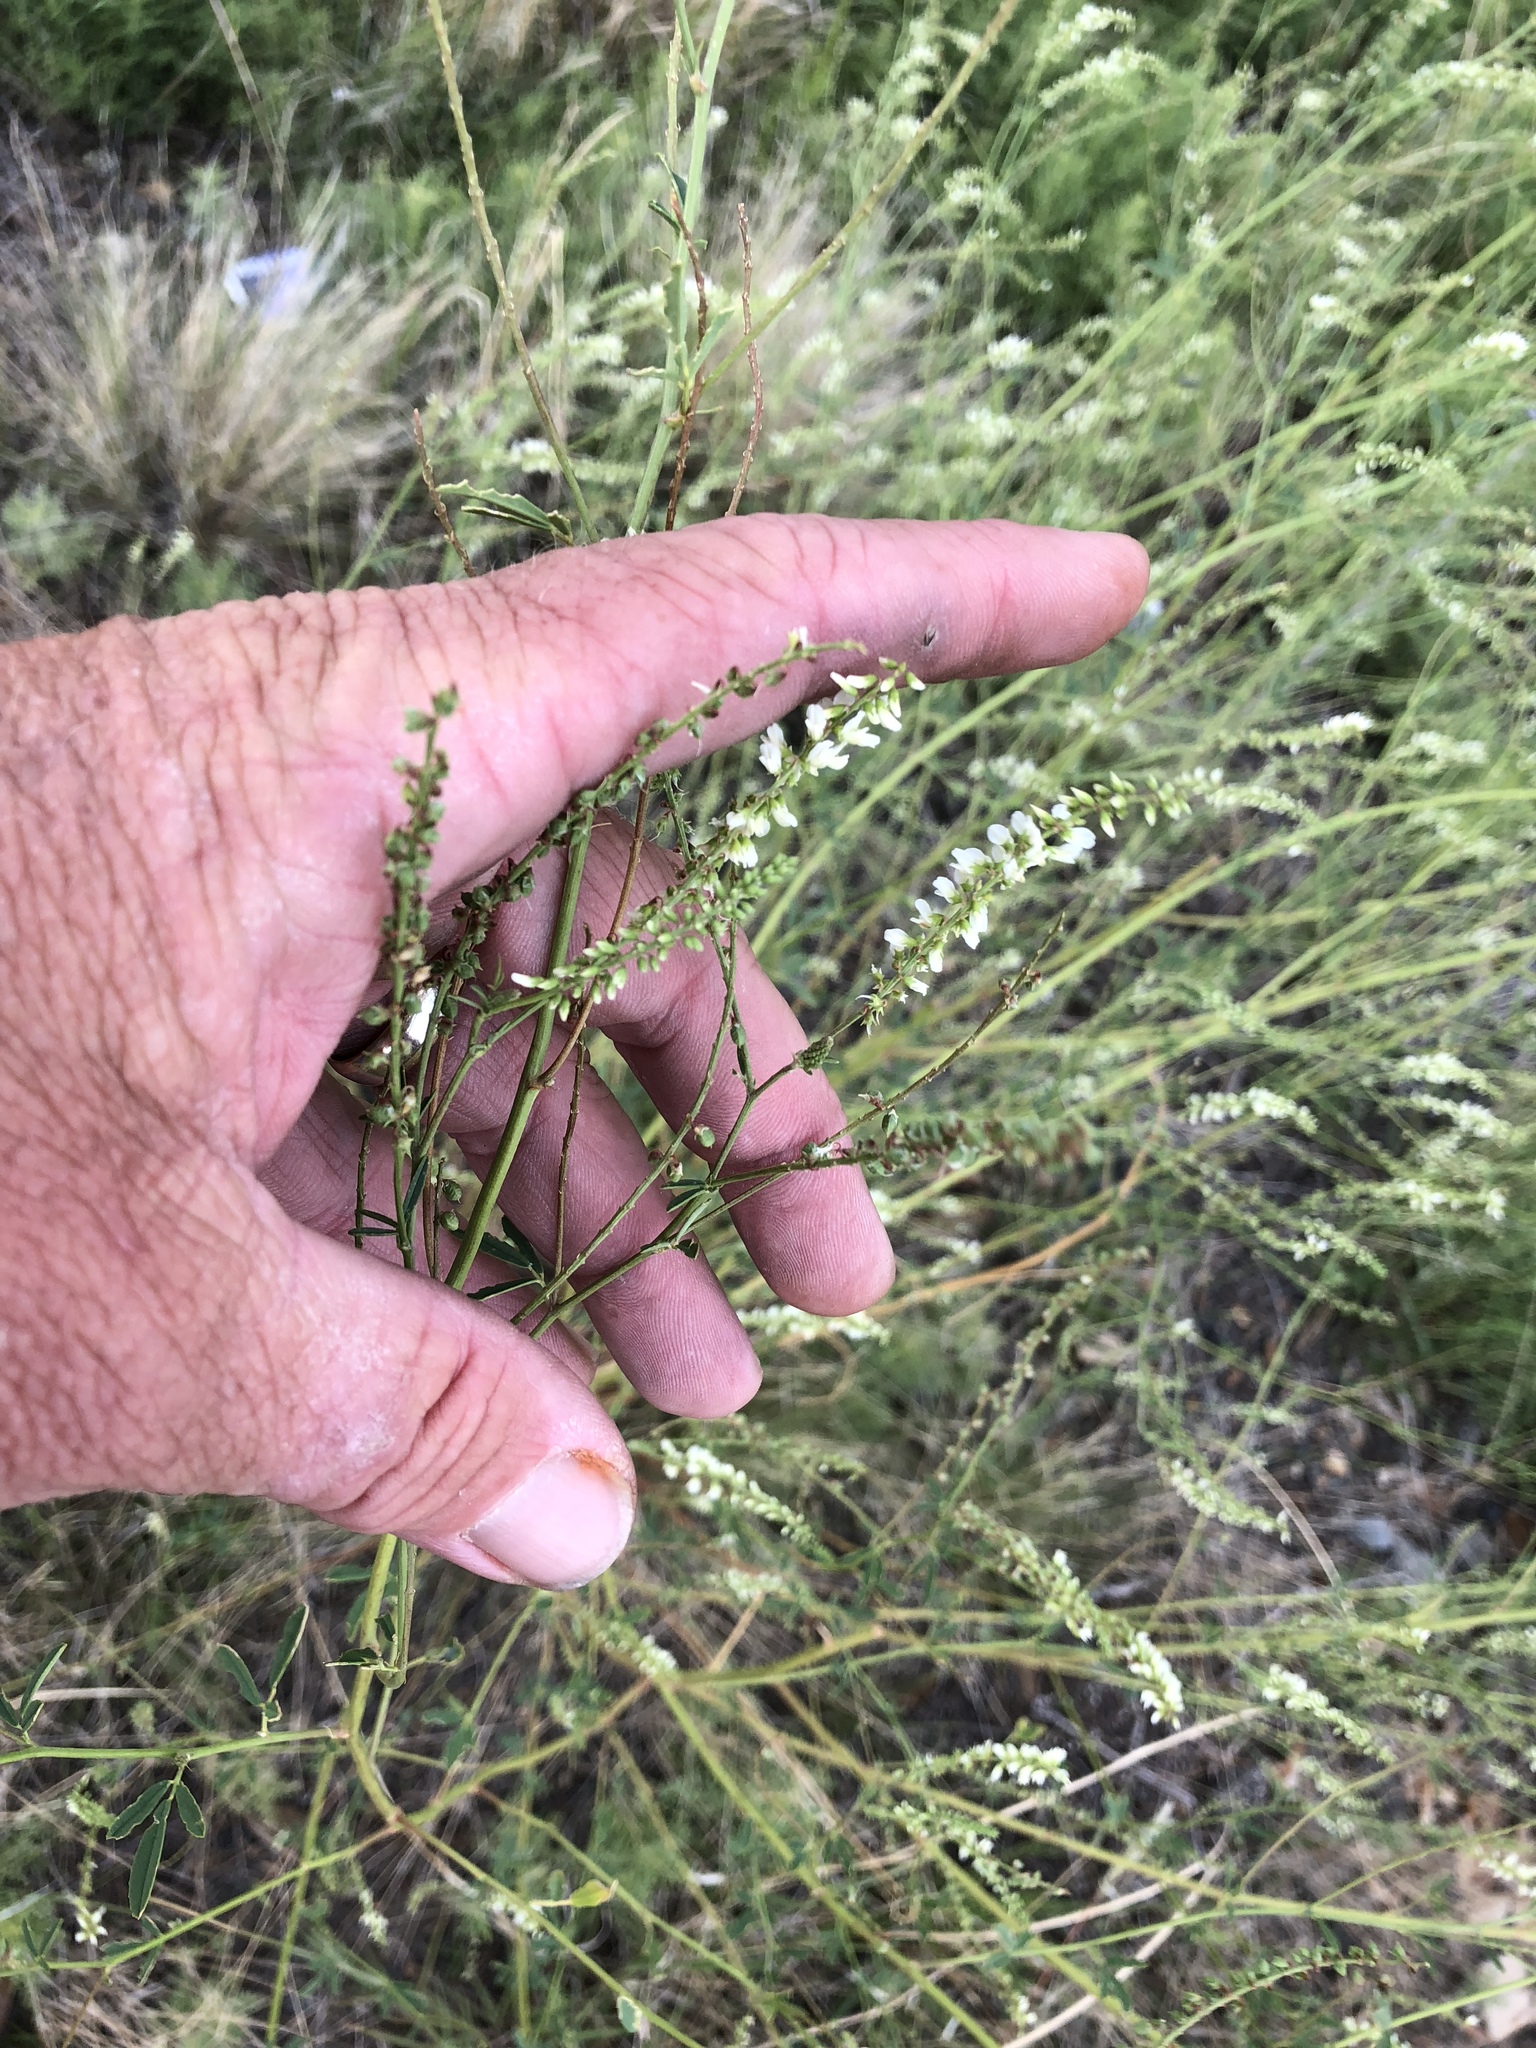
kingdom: Plantae
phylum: Tracheophyta
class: Magnoliopsida
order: Fabales
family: Fabaceae
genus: Melilotus
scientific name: Melilotus albus
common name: White melilot
